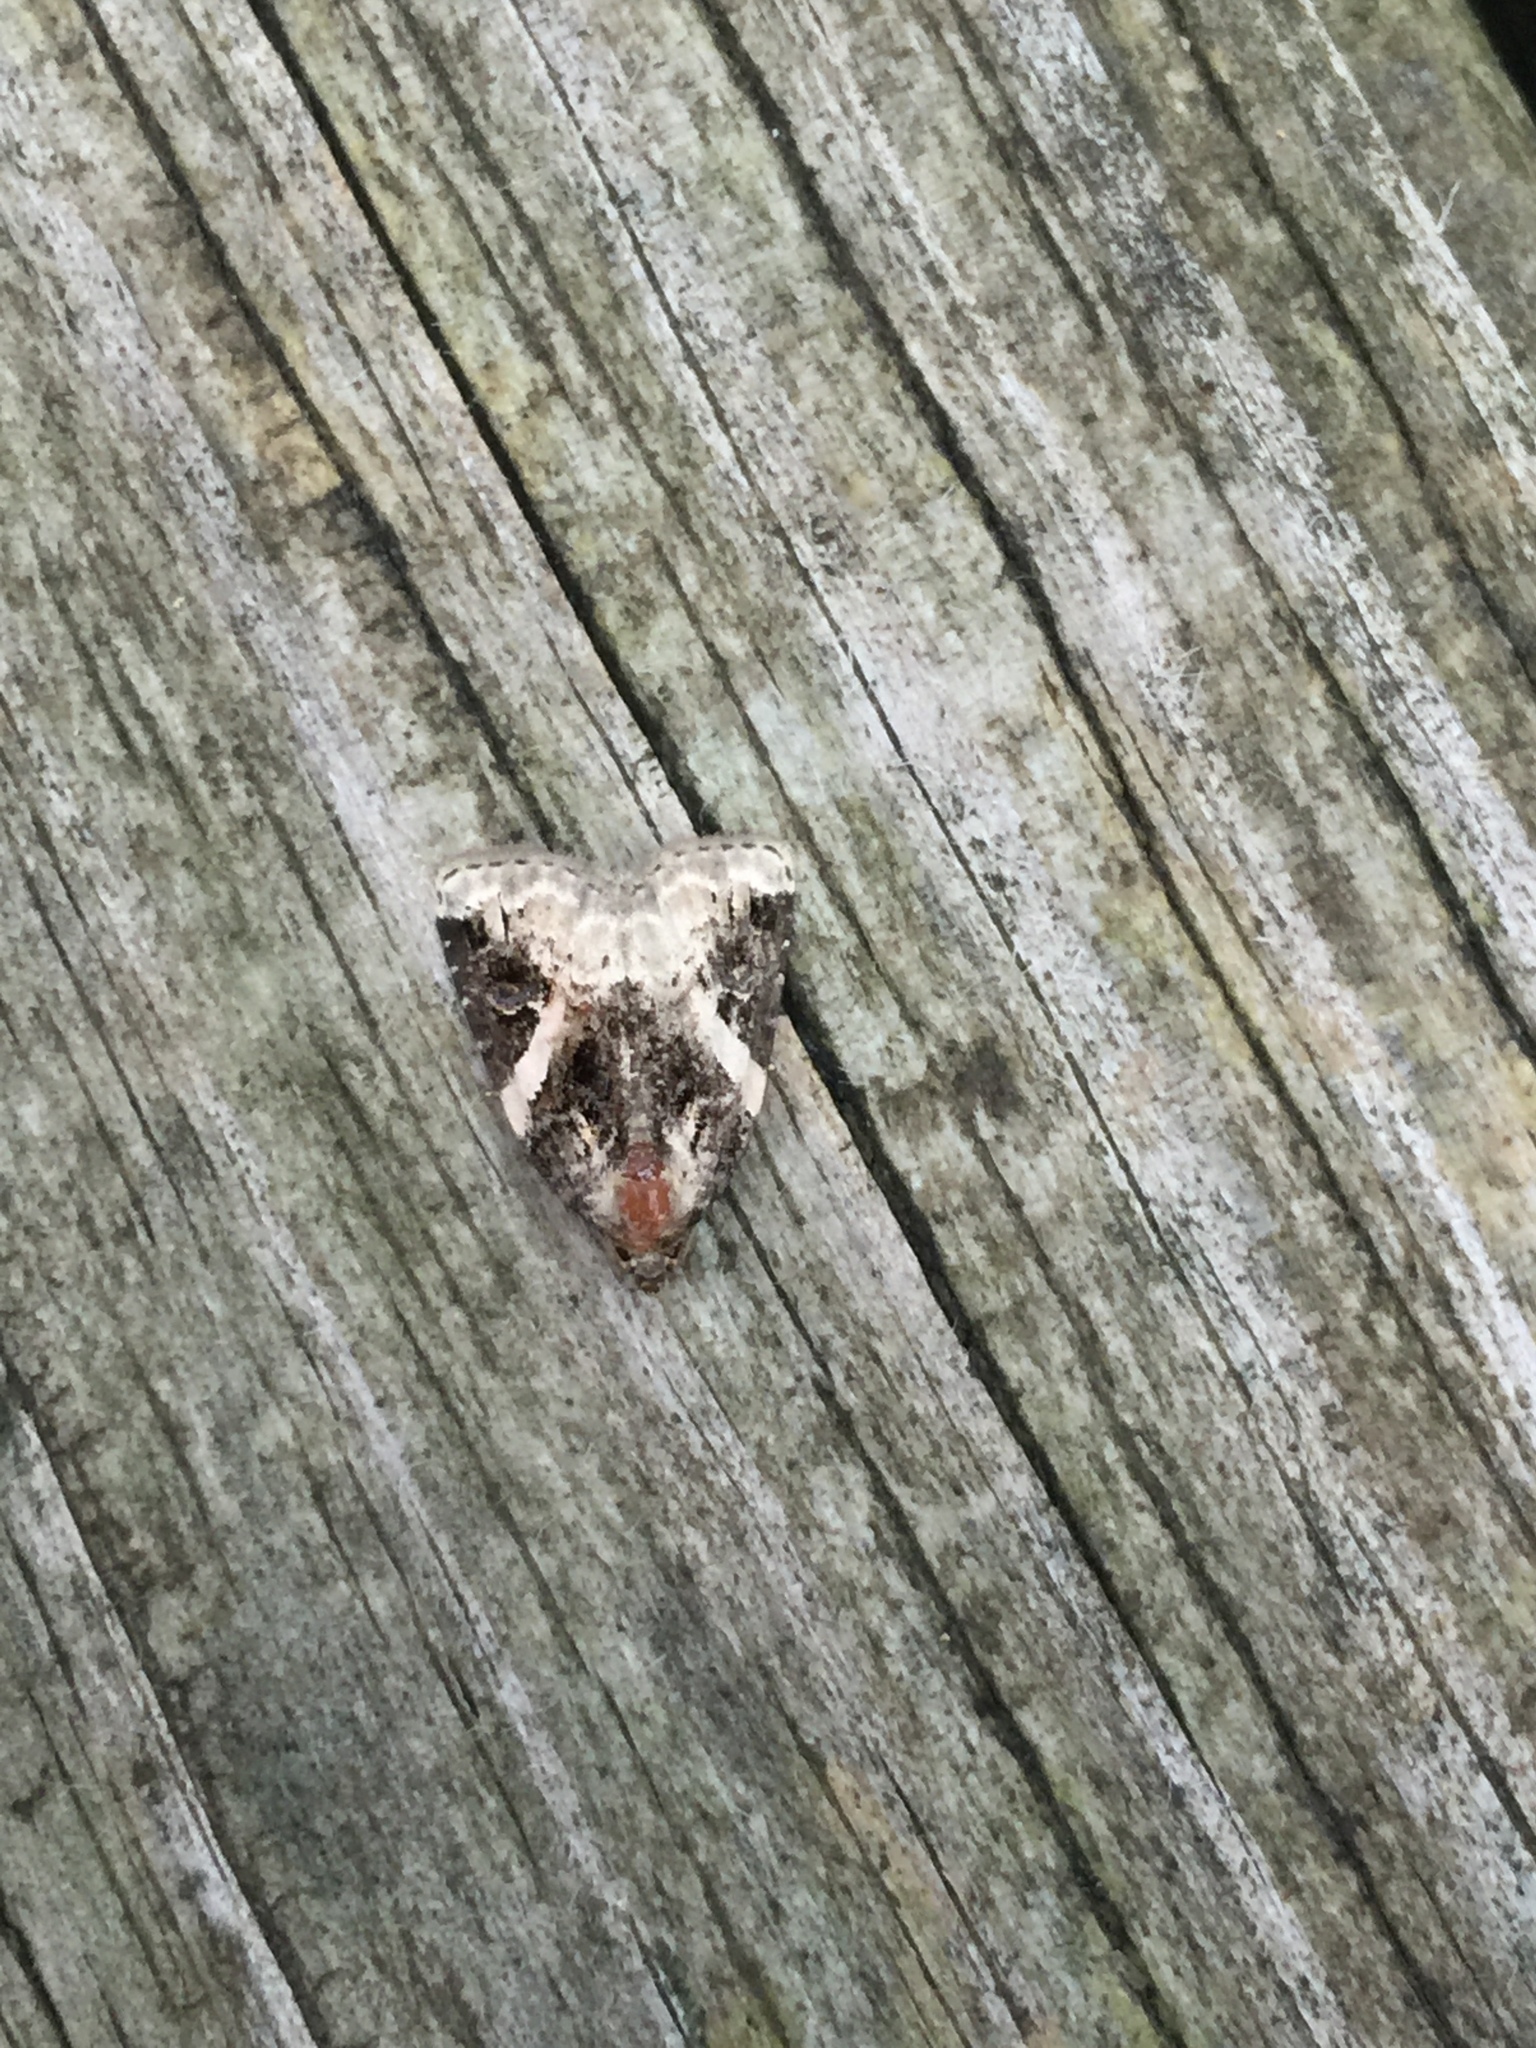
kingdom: Animalia
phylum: Arthropoda
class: Insecta
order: Lepidoptera
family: Noctuidae
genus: Pseudeustrotia
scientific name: Pseudeustrotia carneola
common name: Pink-barred lithacodia moth
